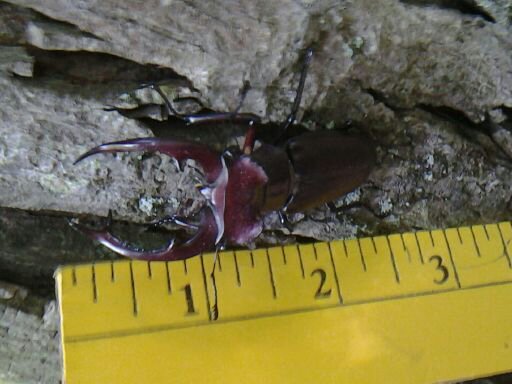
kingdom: Animalia
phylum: Arthropoda
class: Insecta
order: Coleoptera
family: Lucanidae
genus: Lucanus
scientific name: Lucanus elaphus
